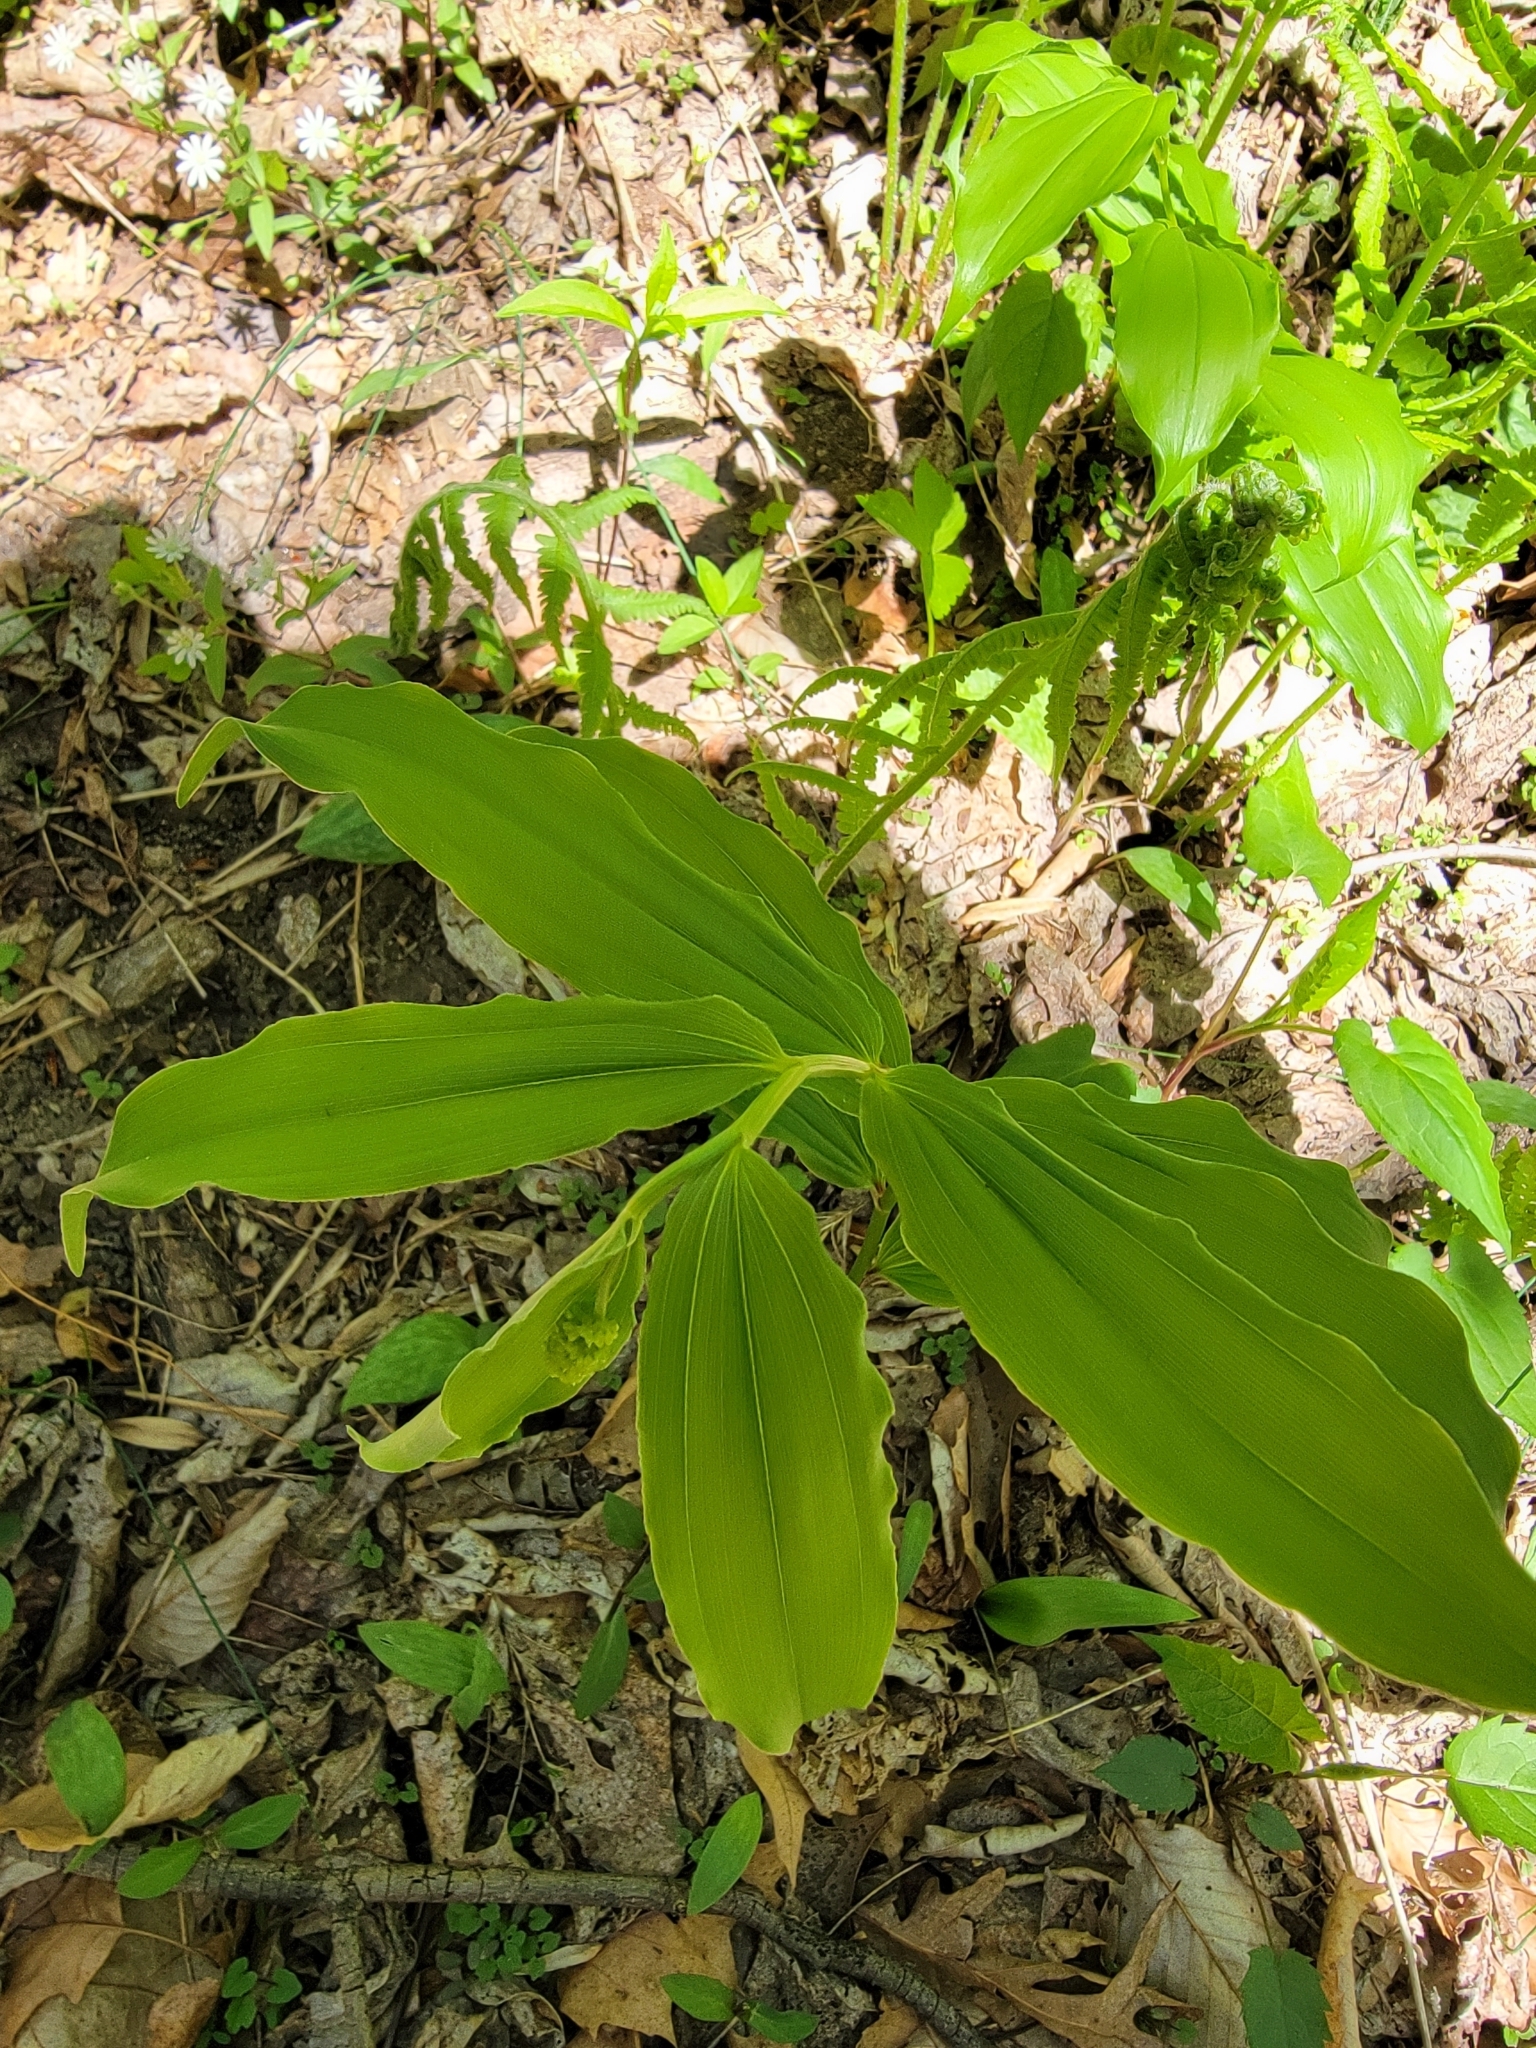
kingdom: Plantae
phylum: Tracheophyta
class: Liliopsida
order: Asparagales
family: Asparagaceae
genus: Maianthemum
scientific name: Maianthemum racemosum
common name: False spikenard
